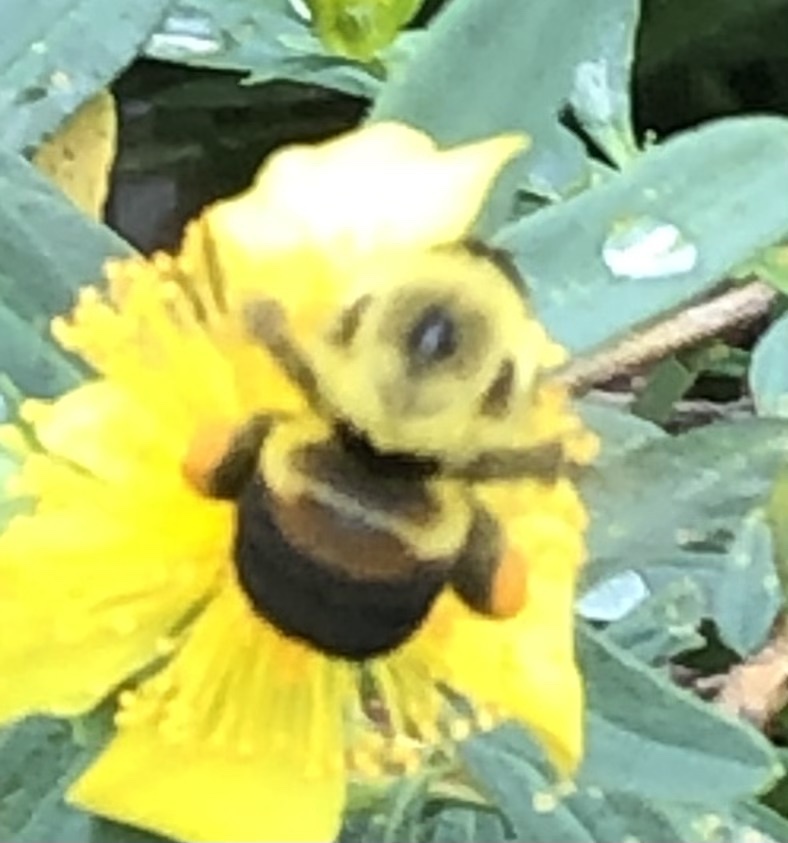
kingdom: Animalia
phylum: Arthropoda
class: Insecta
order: Hymenoptera
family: Apidae
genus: Bombus
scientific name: Bombus griseocollis
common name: Brown-belted bumble bee
